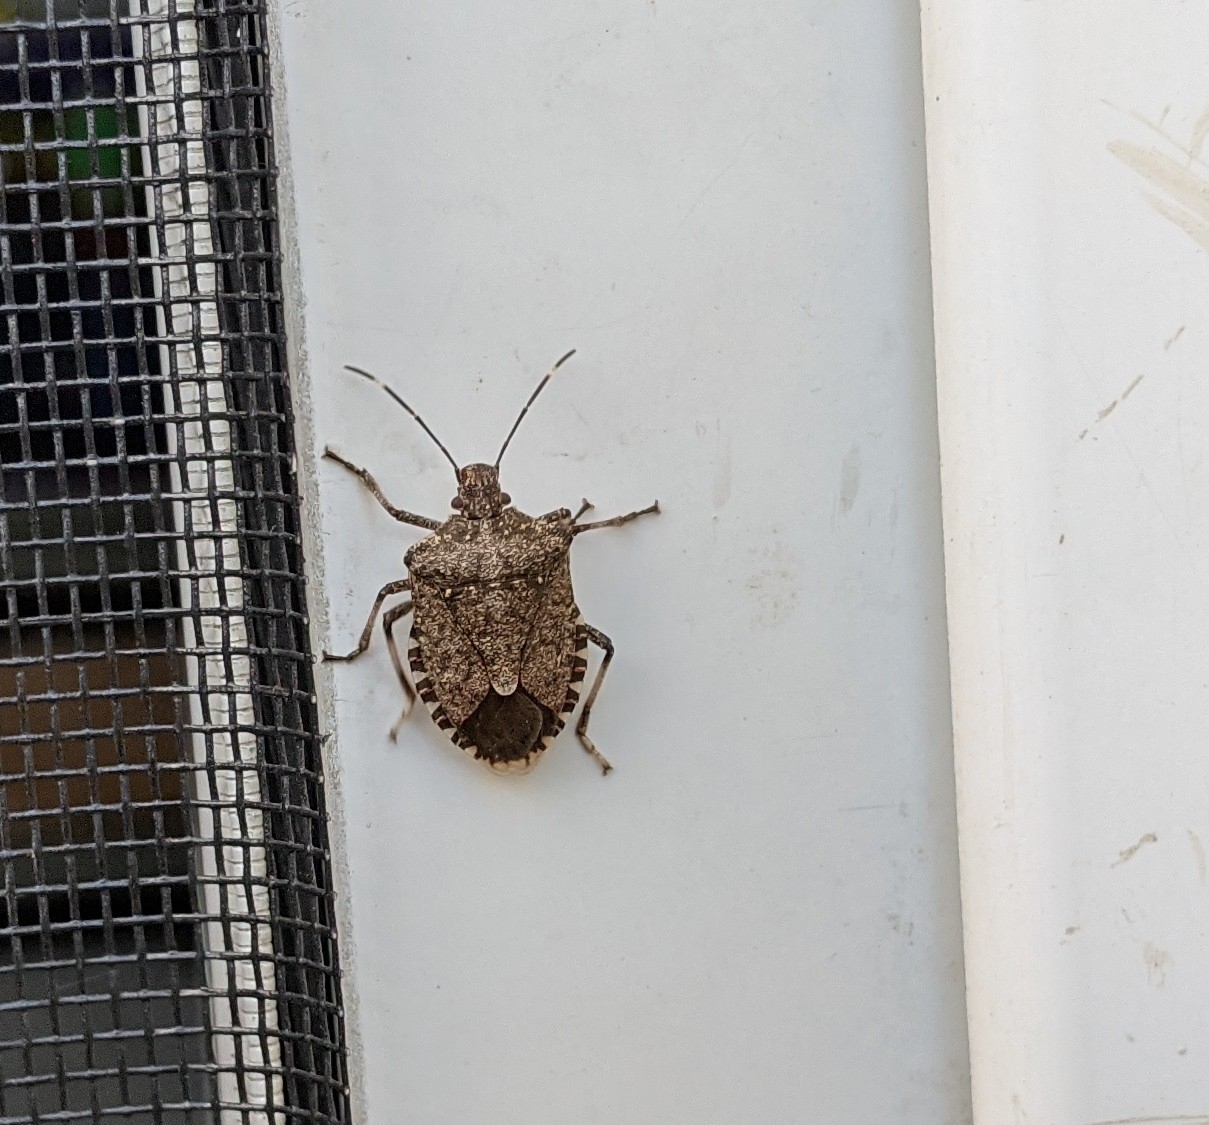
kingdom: Animalia
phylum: Arthropoda
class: Insecta
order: Hemiptera
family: Pentatomidae
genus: Halyomorpha
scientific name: Halyomorpha halys
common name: Brown marmorated stink bug
